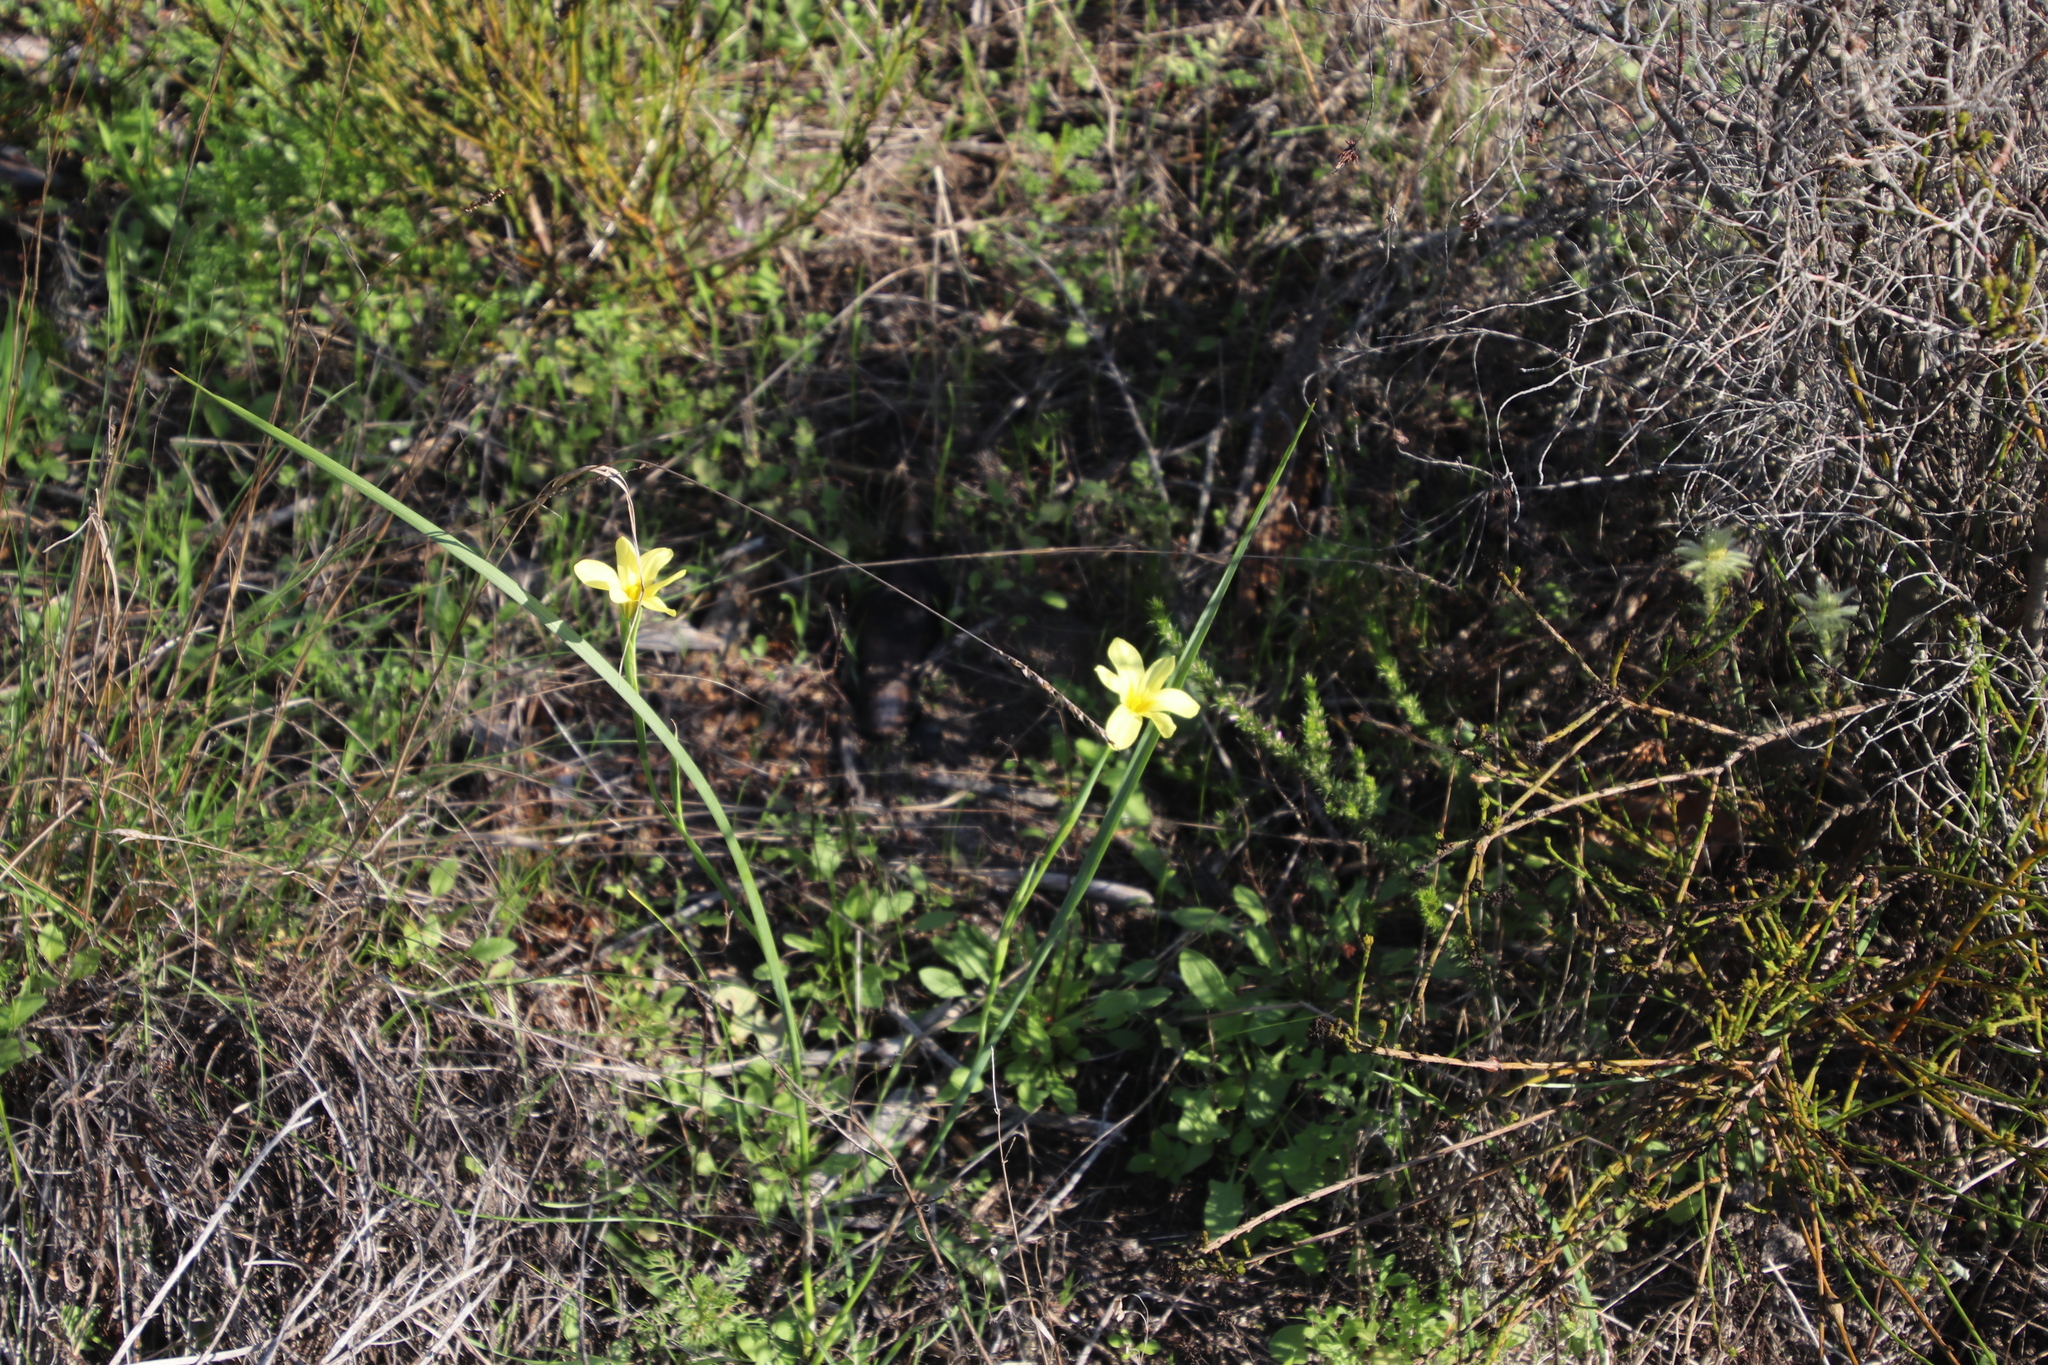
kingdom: Plantae
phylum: Tracheophyta
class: Liliopsida
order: Asparagales
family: Iridaceae
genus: Moraea
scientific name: Moraea collina
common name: Cape-tulip
